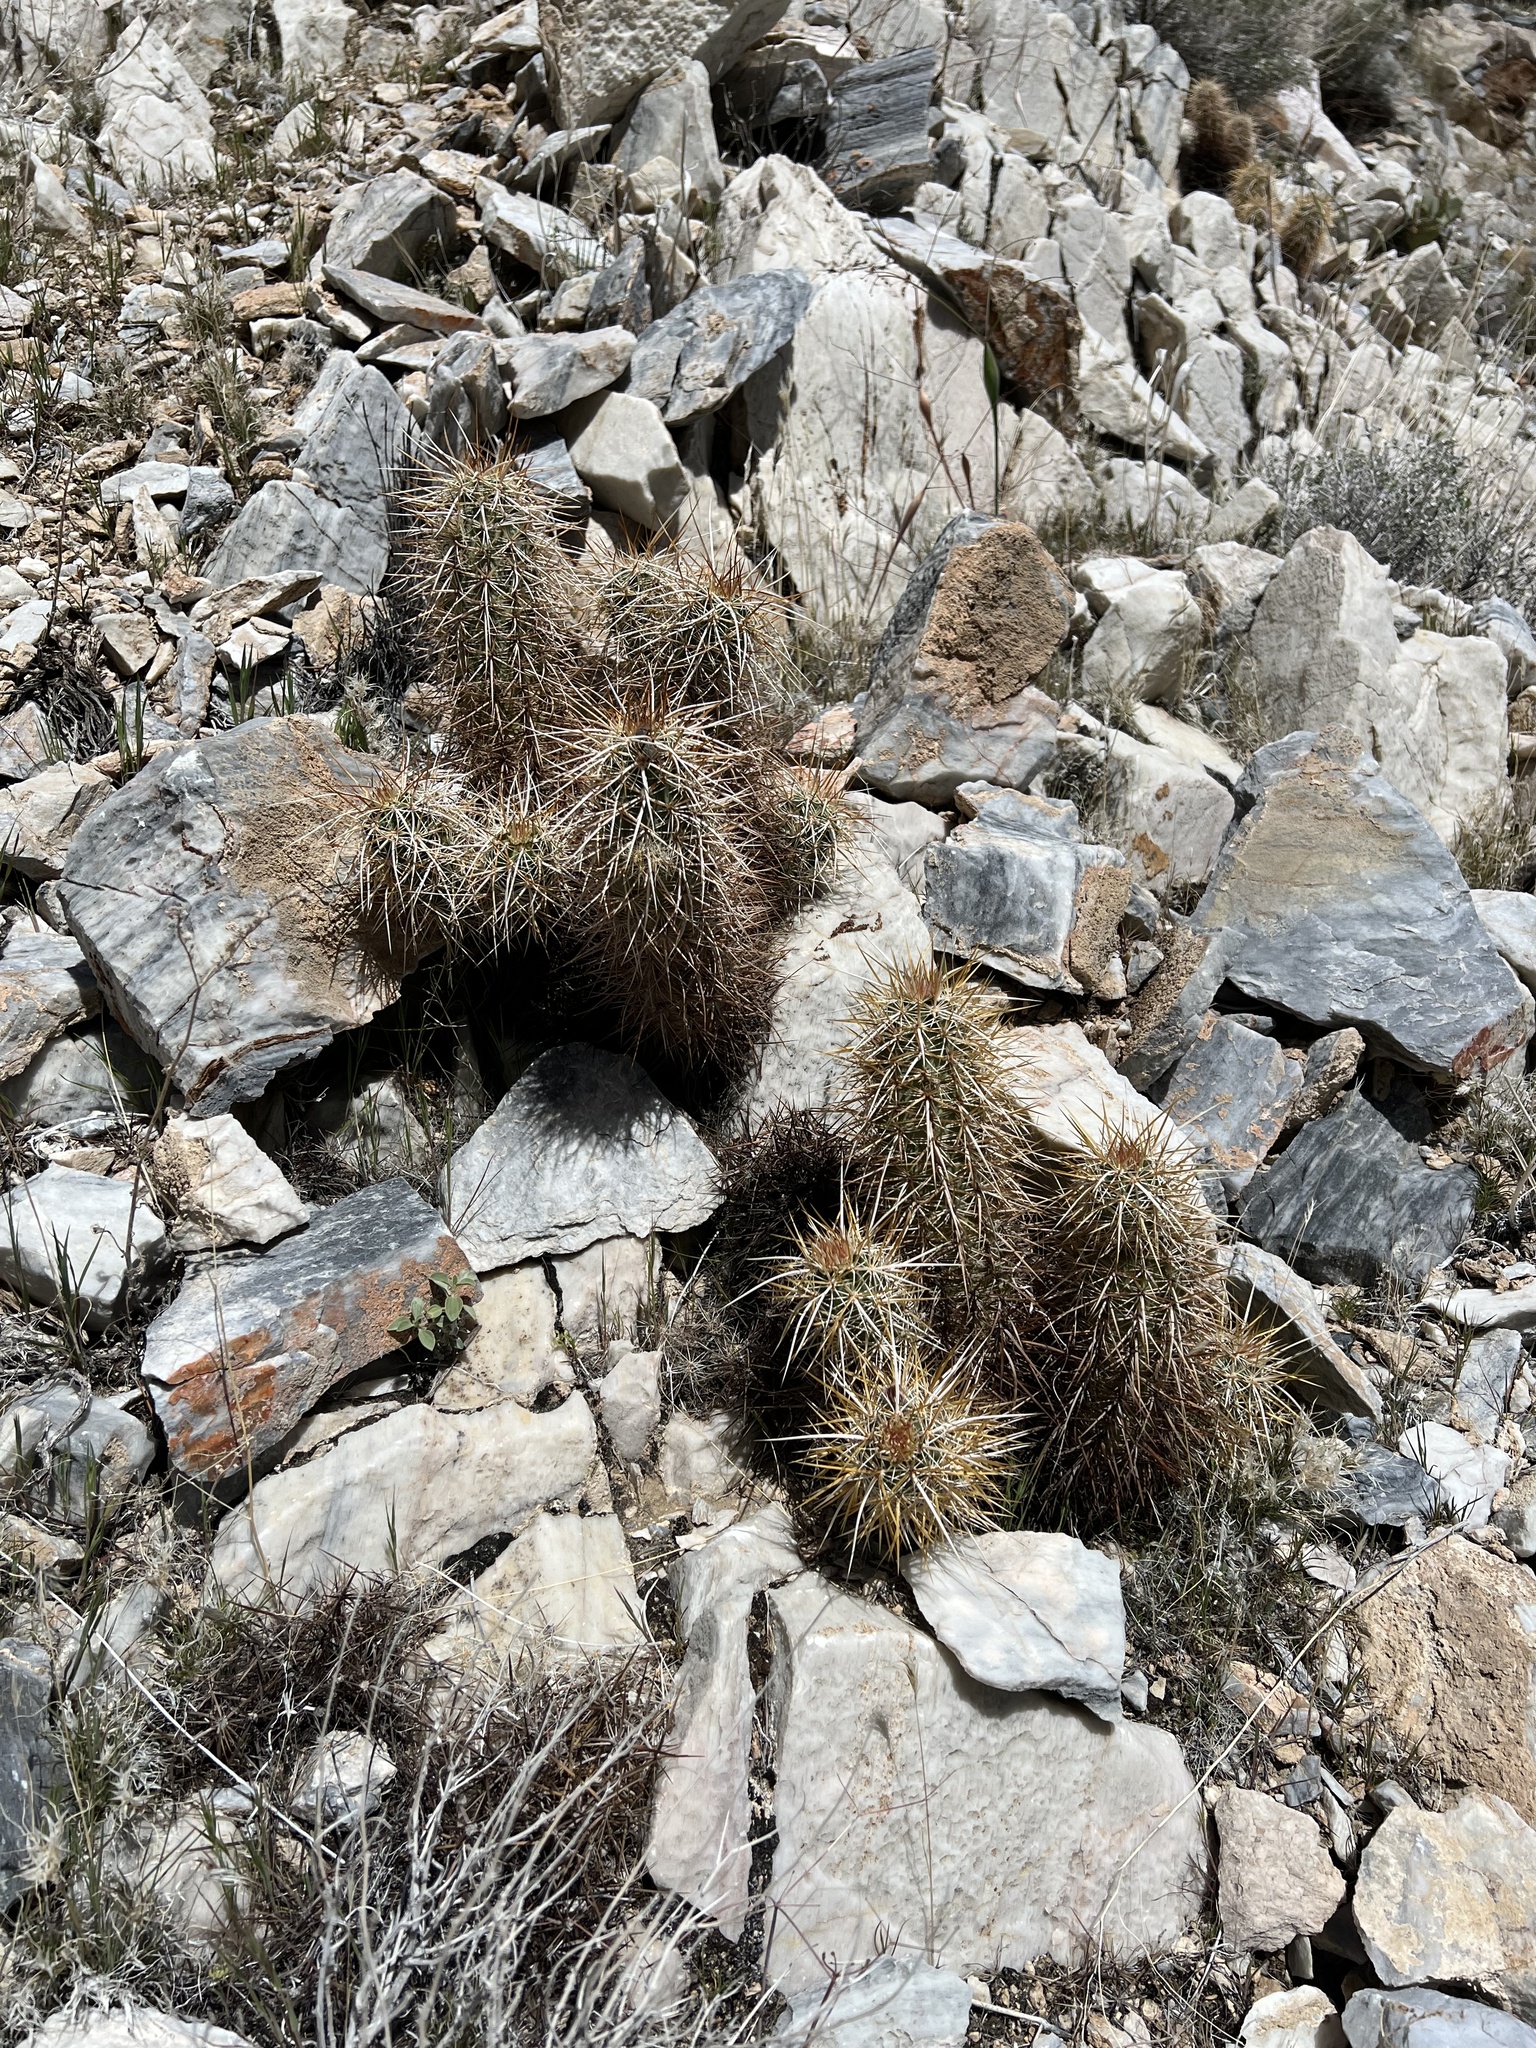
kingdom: Plantae
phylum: Tracheophyta
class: Magnoliopsida
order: Caryophyllales
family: Cactaceae
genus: Echinocereus
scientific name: Echinocereus engelmannii
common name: Engelmann's hedgehog cactus
